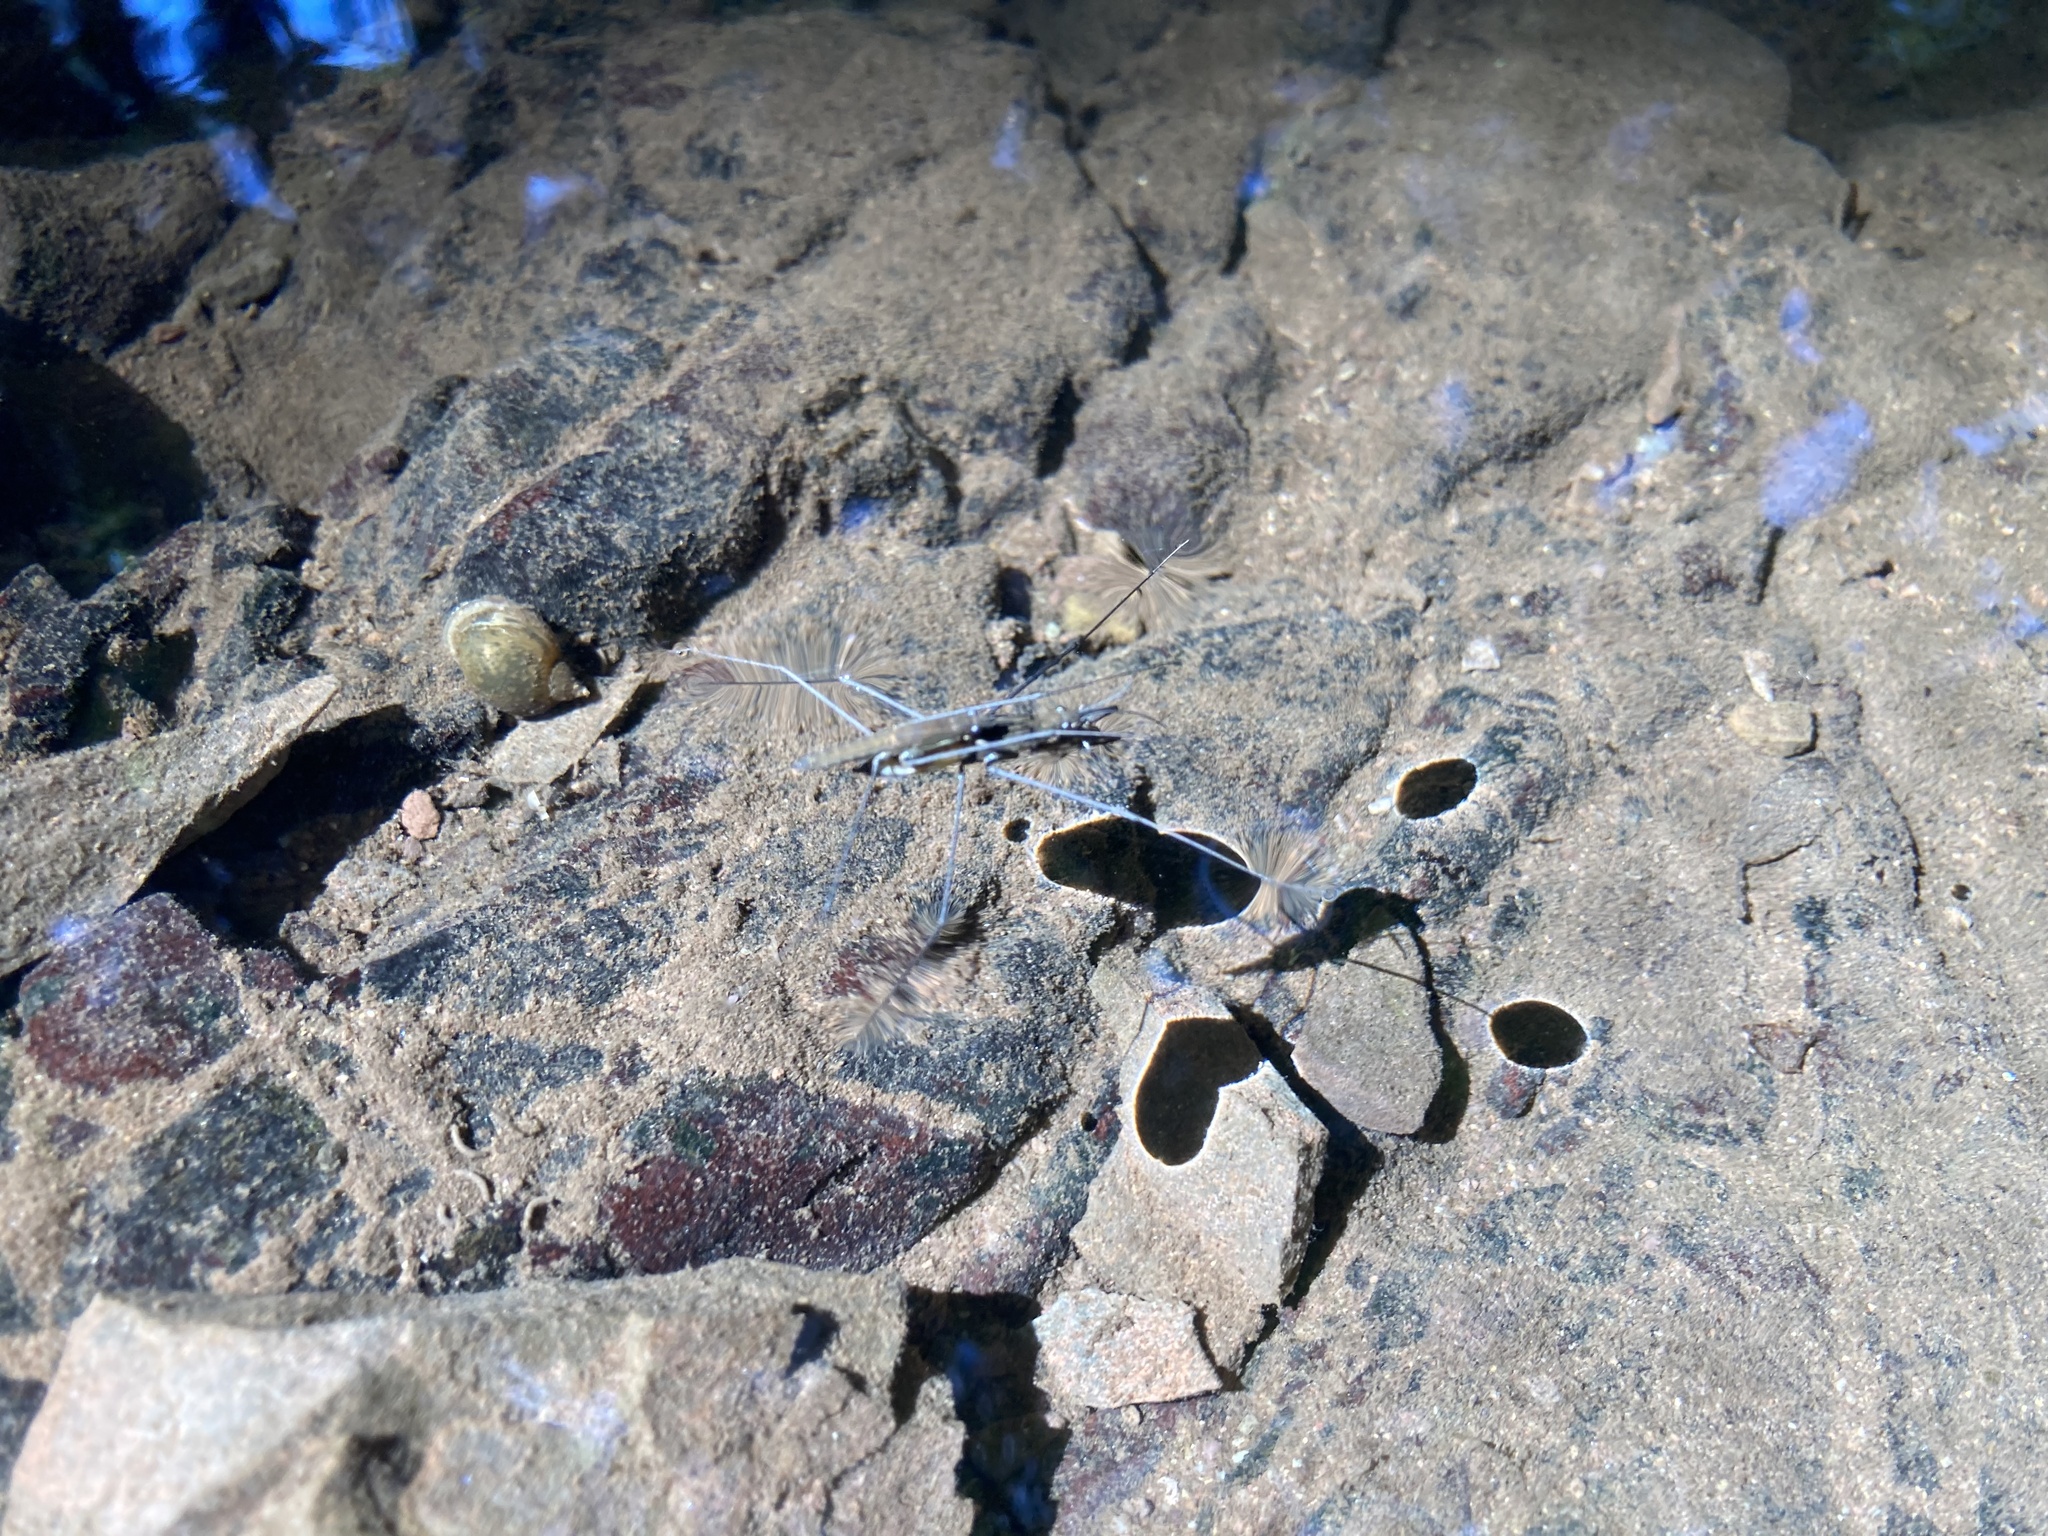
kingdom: Animalia
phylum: Arthropoda
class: Insecta
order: Hemiptera
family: Gerridae
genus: Aquarius
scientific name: Aquarius najas
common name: River skater
